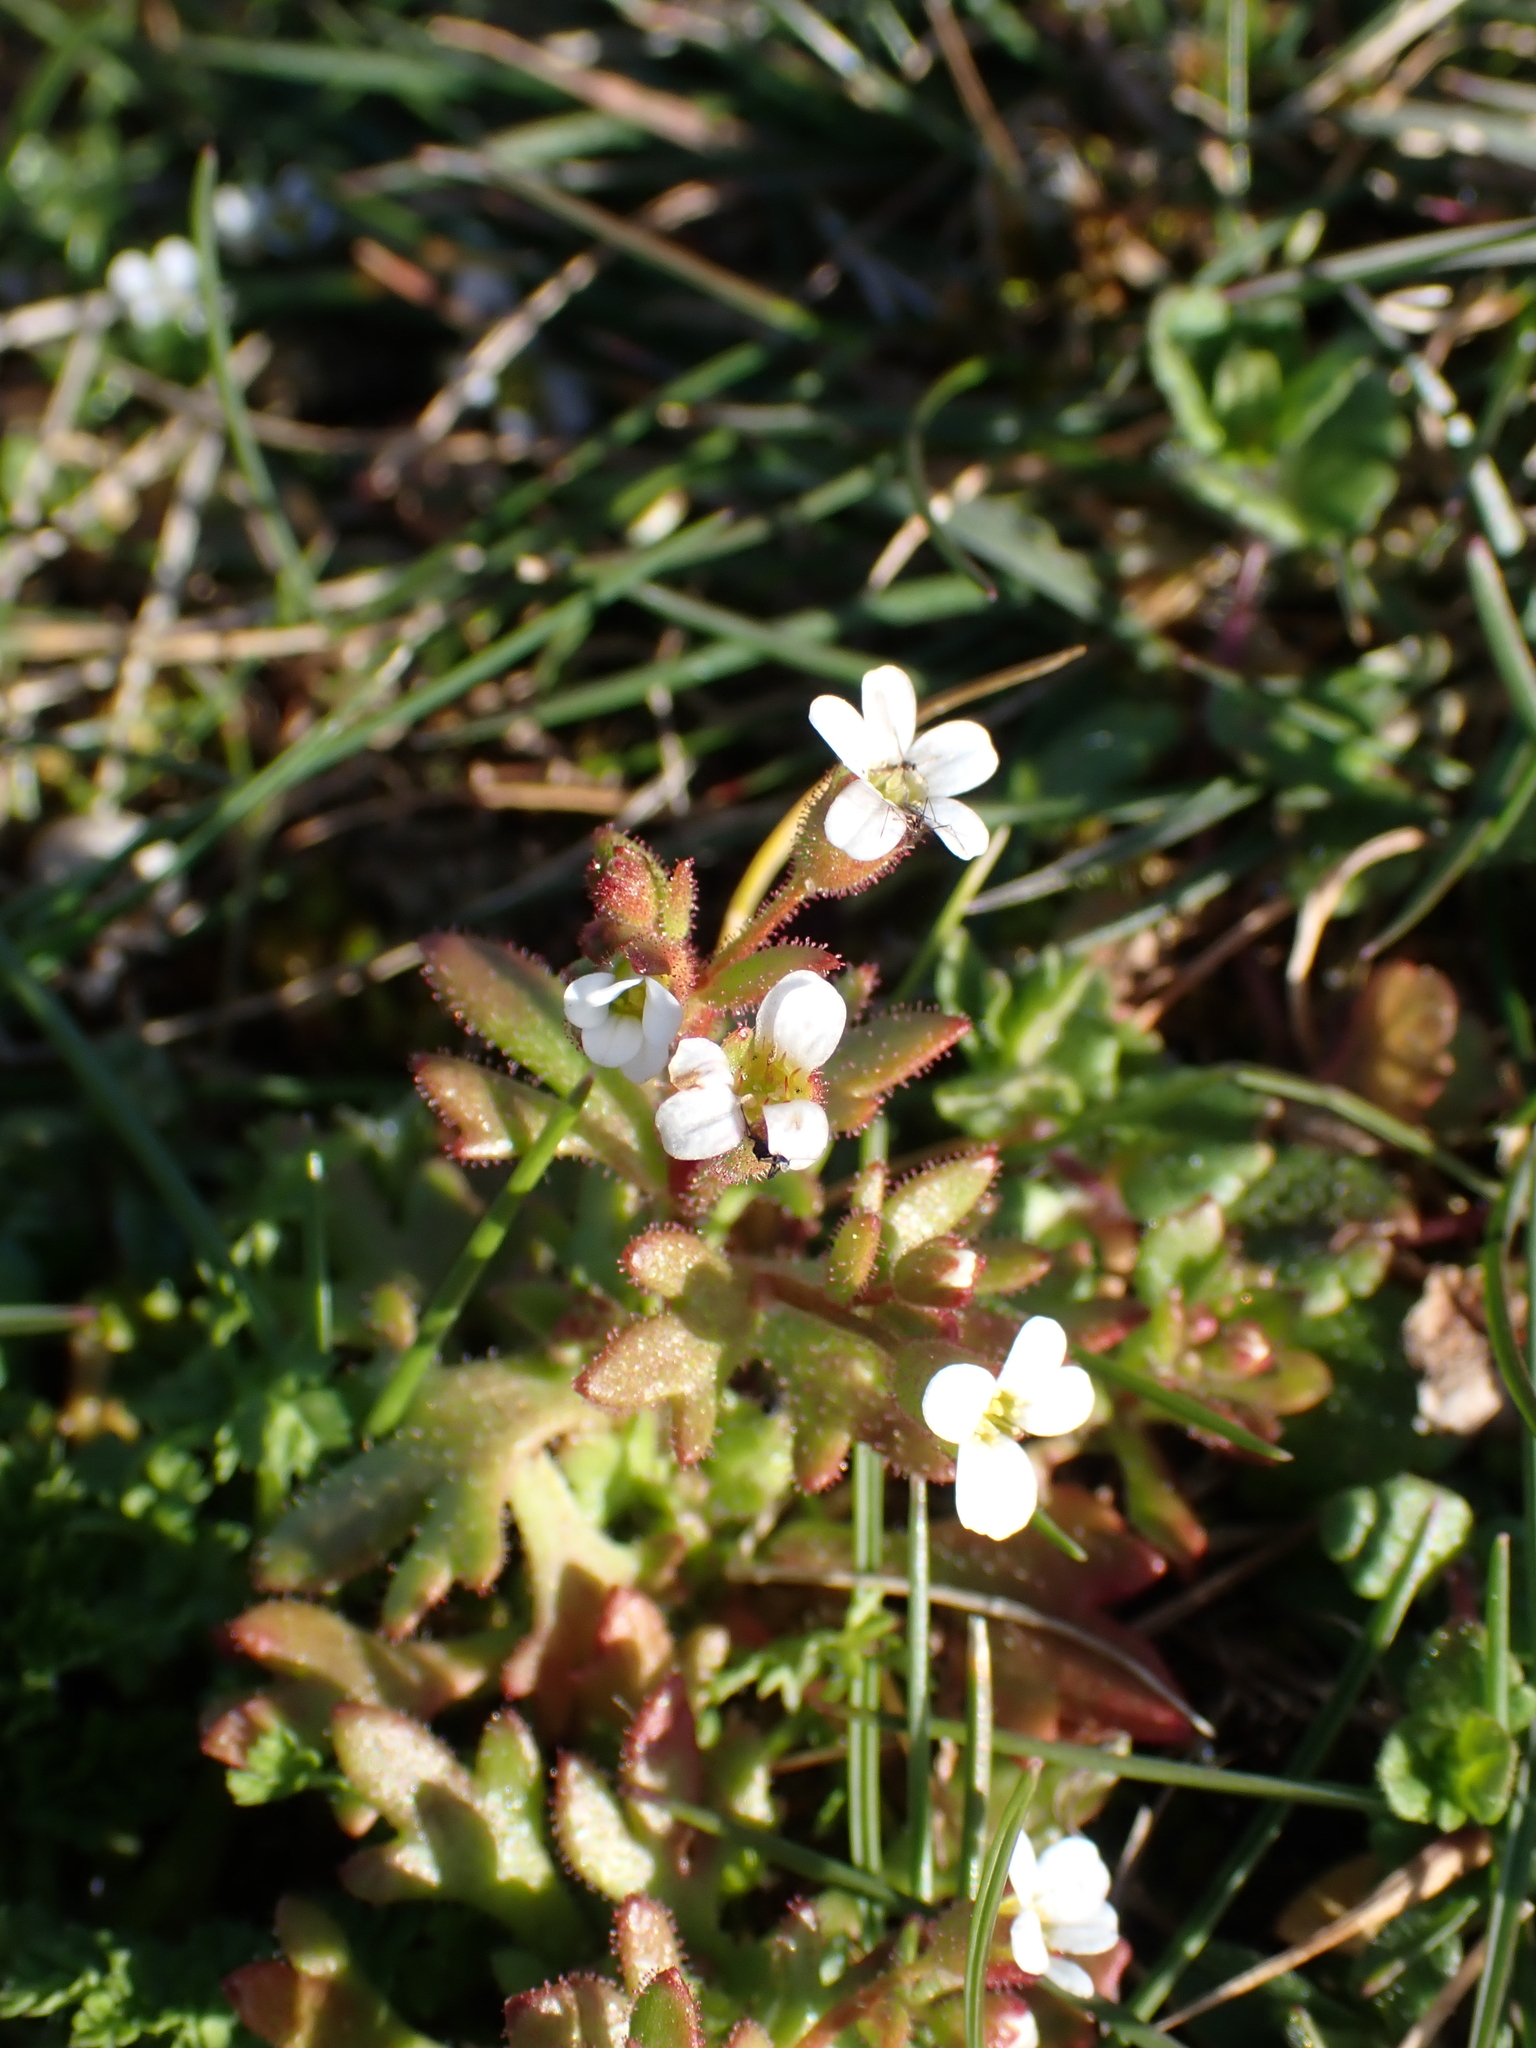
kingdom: Plantae
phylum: Tracheophyta
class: Magnoliopsida
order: Saxifragales
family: Saxifragaceae
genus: Saxifraga
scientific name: Saxifraga tridactylites
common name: Rue-leaved saxifrage
